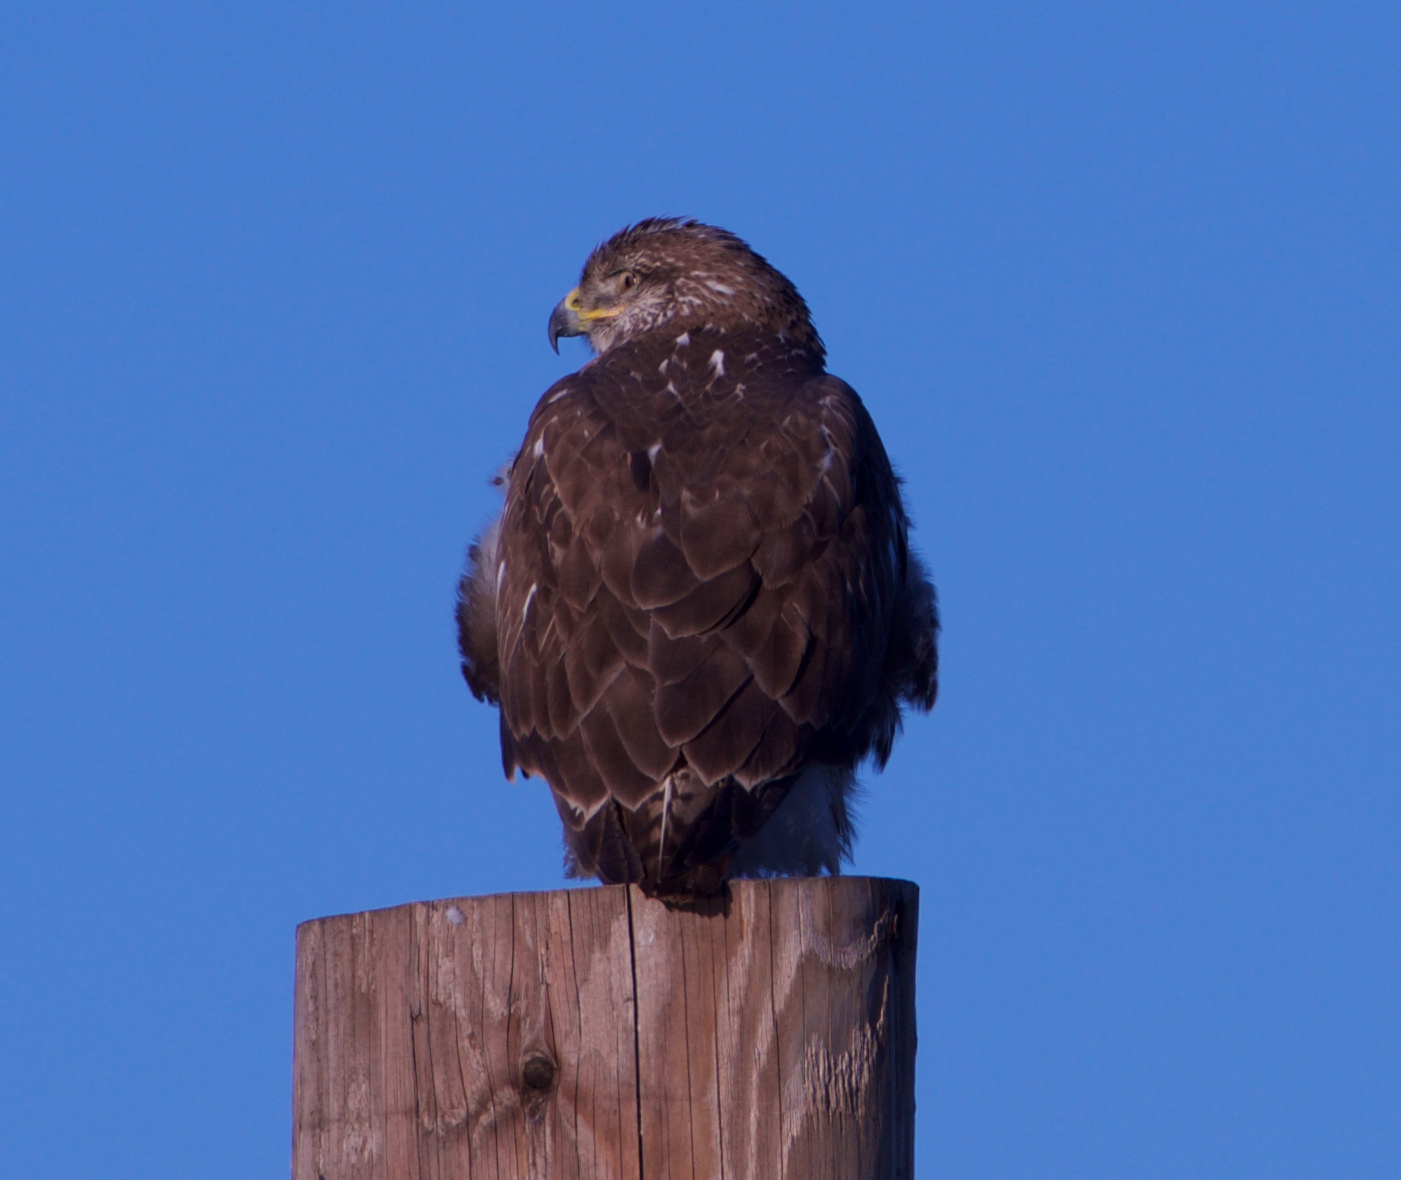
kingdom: Animalia
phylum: Chordata
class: Aves
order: Accipitriformes
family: Accipitridae
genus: Buteo
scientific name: Buteo regalis
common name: Ferruginous hawk
